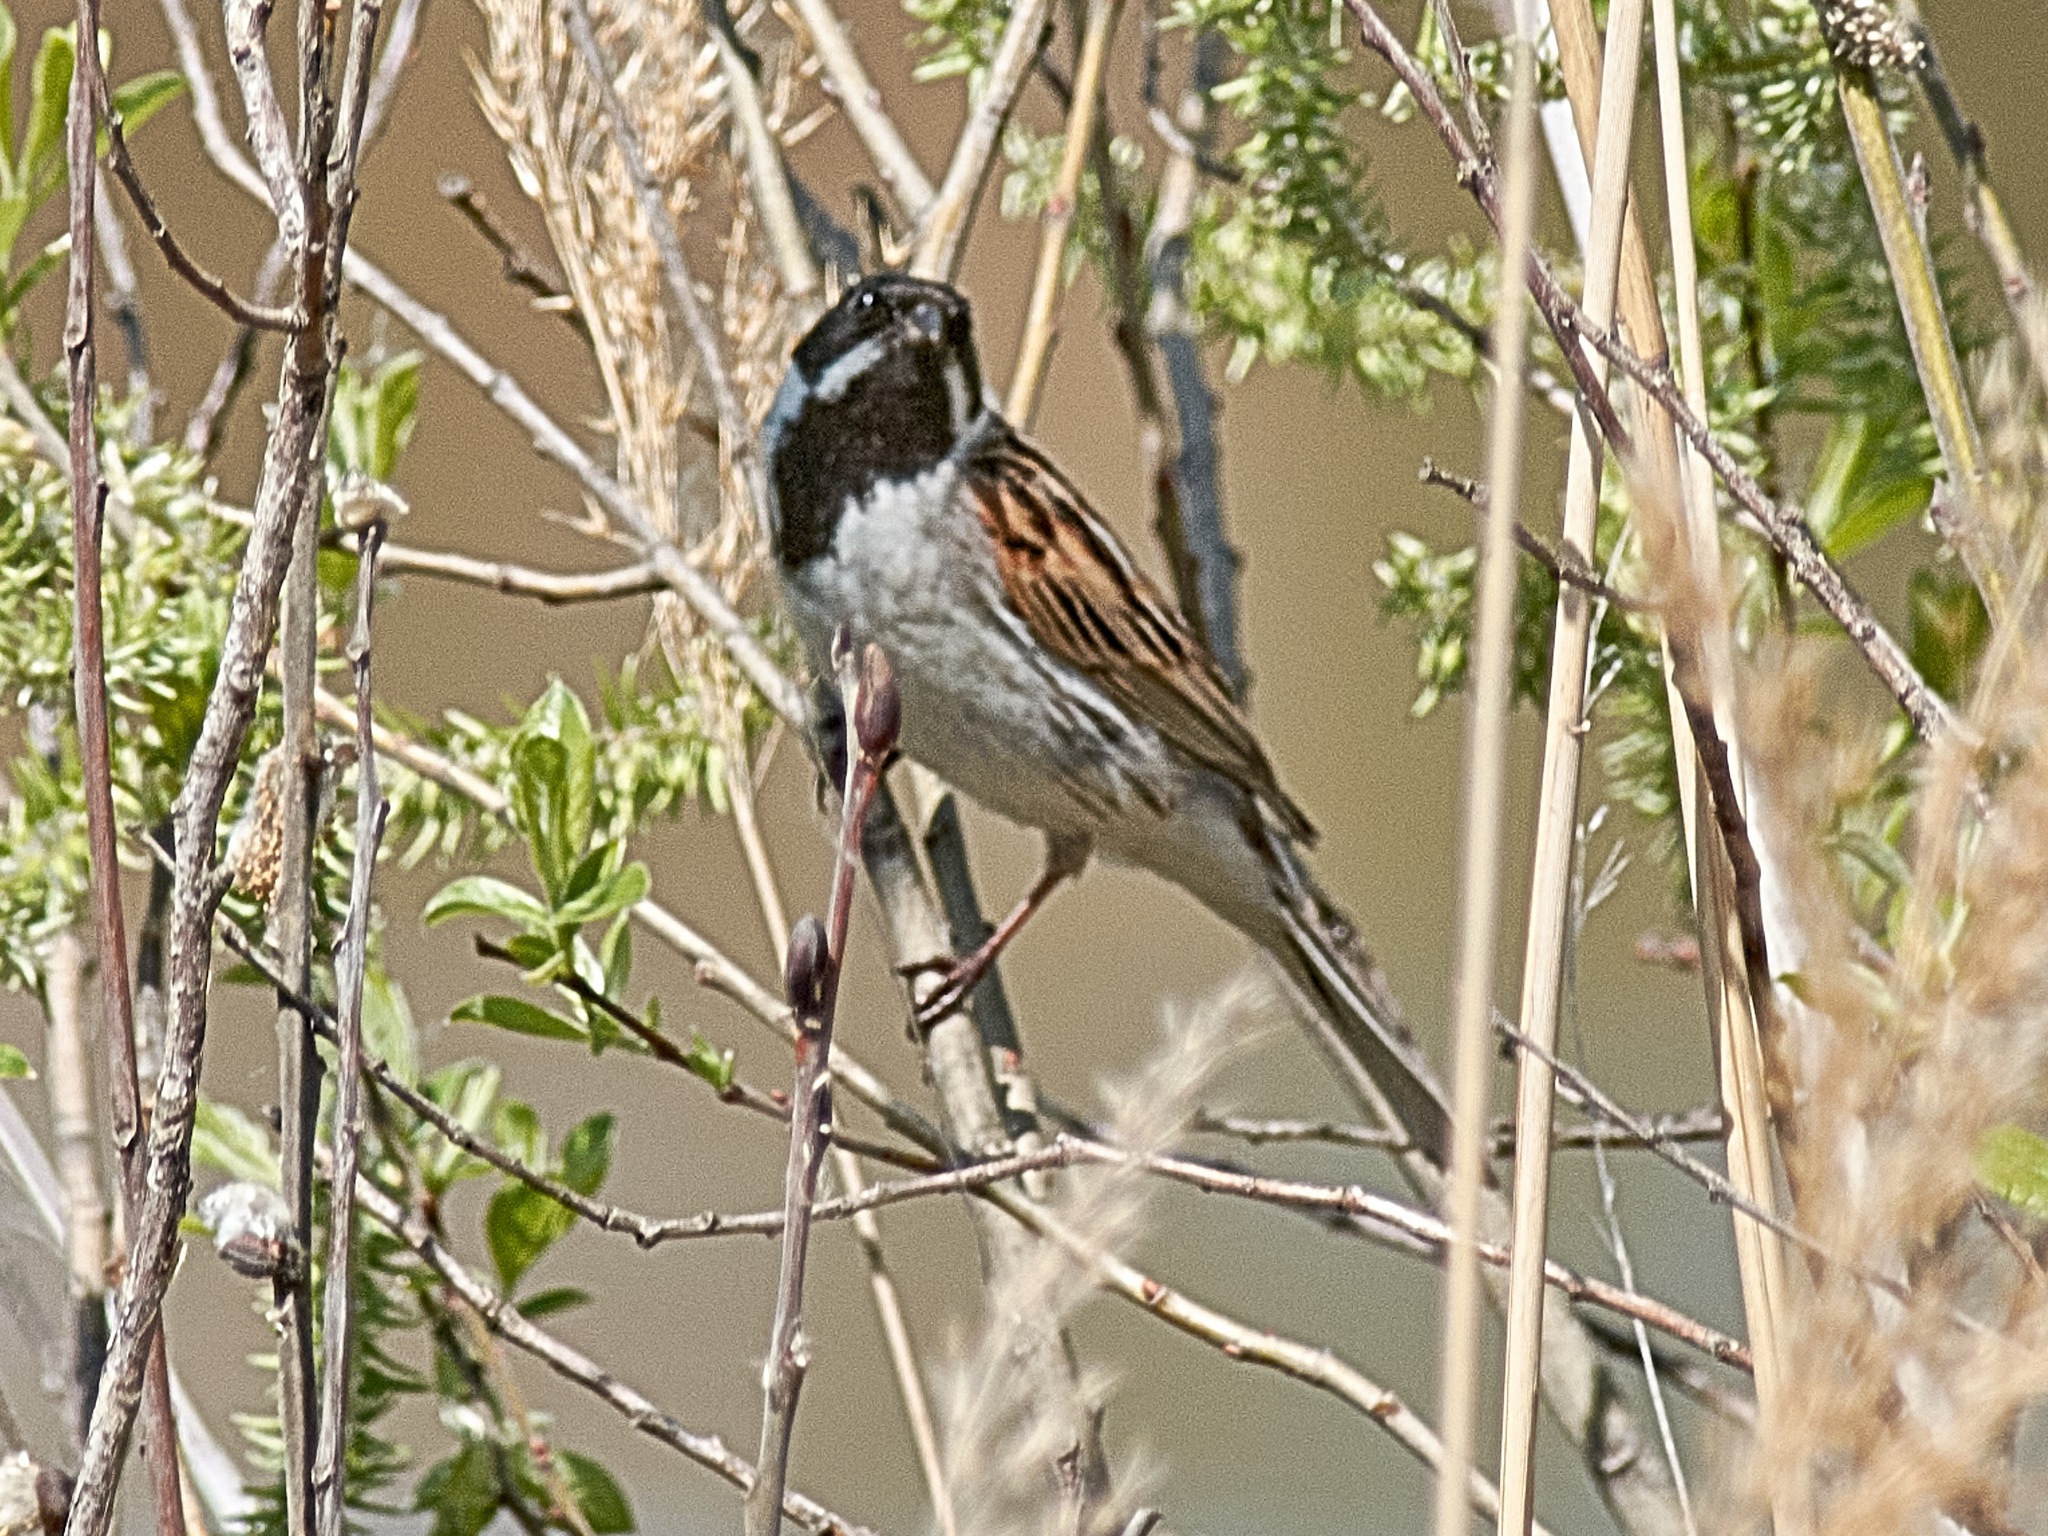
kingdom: Animalia
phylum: Chordata
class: Aves
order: Passeriformes
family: Emberizidae
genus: Emberiza
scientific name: Emberiza schoeniclus
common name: Reed bunting
